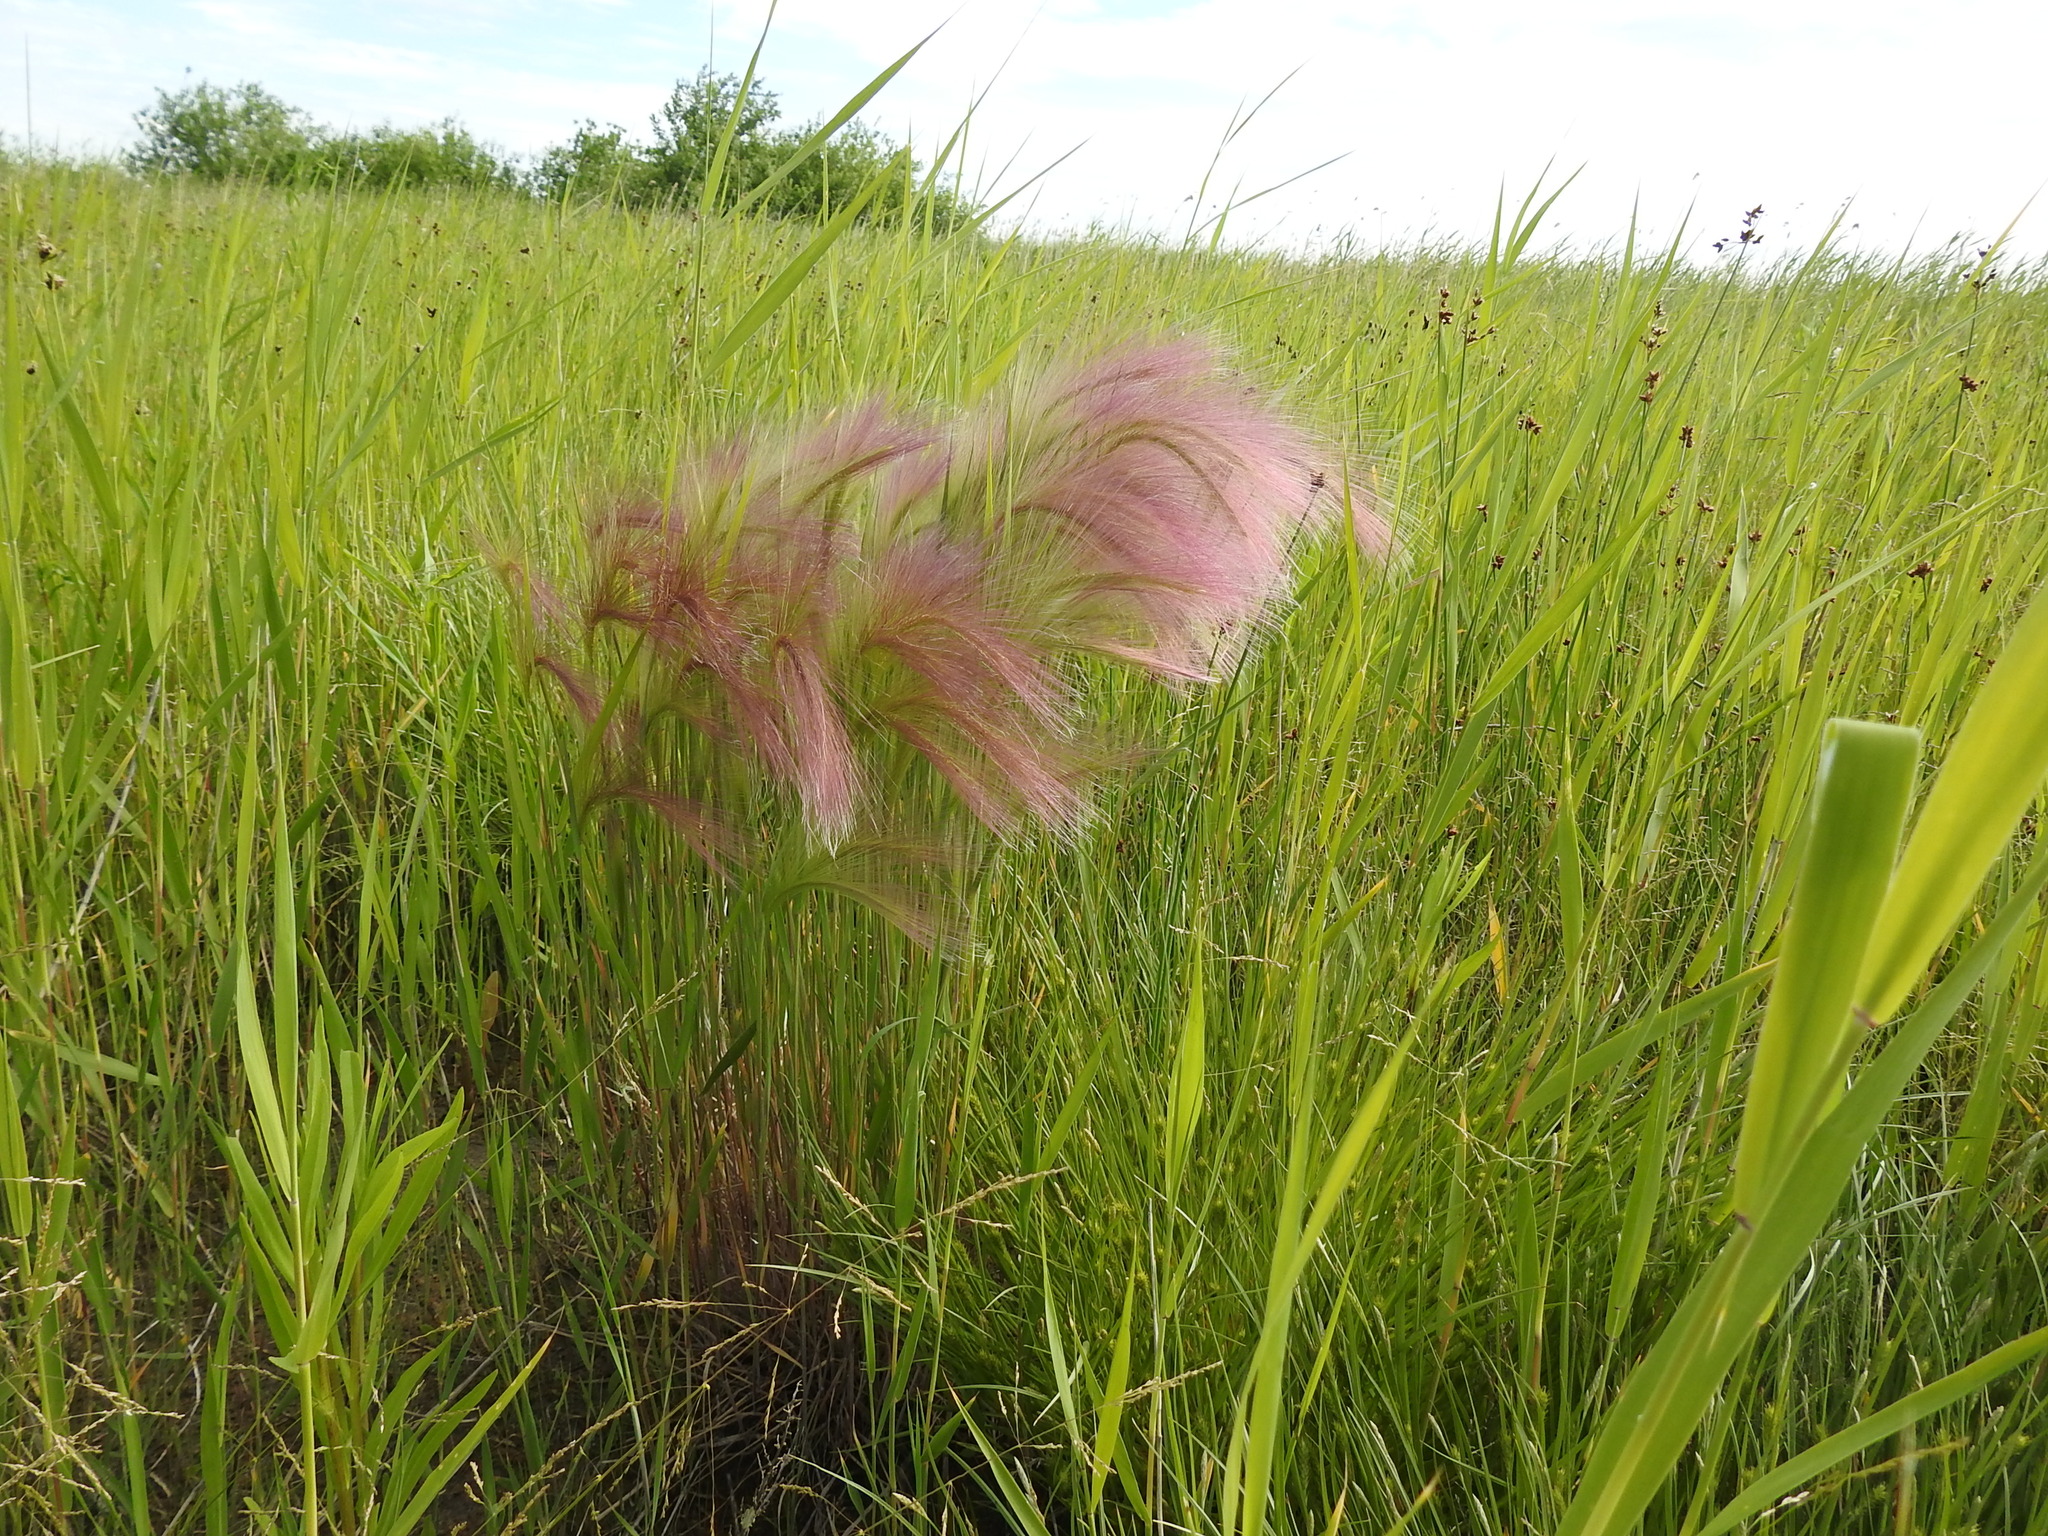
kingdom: Plantae
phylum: Tracheophyta
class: Liliopsida
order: Poales
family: Poaceae
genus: Hordeum
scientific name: Hordeum jubatum
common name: Foxtail barley
